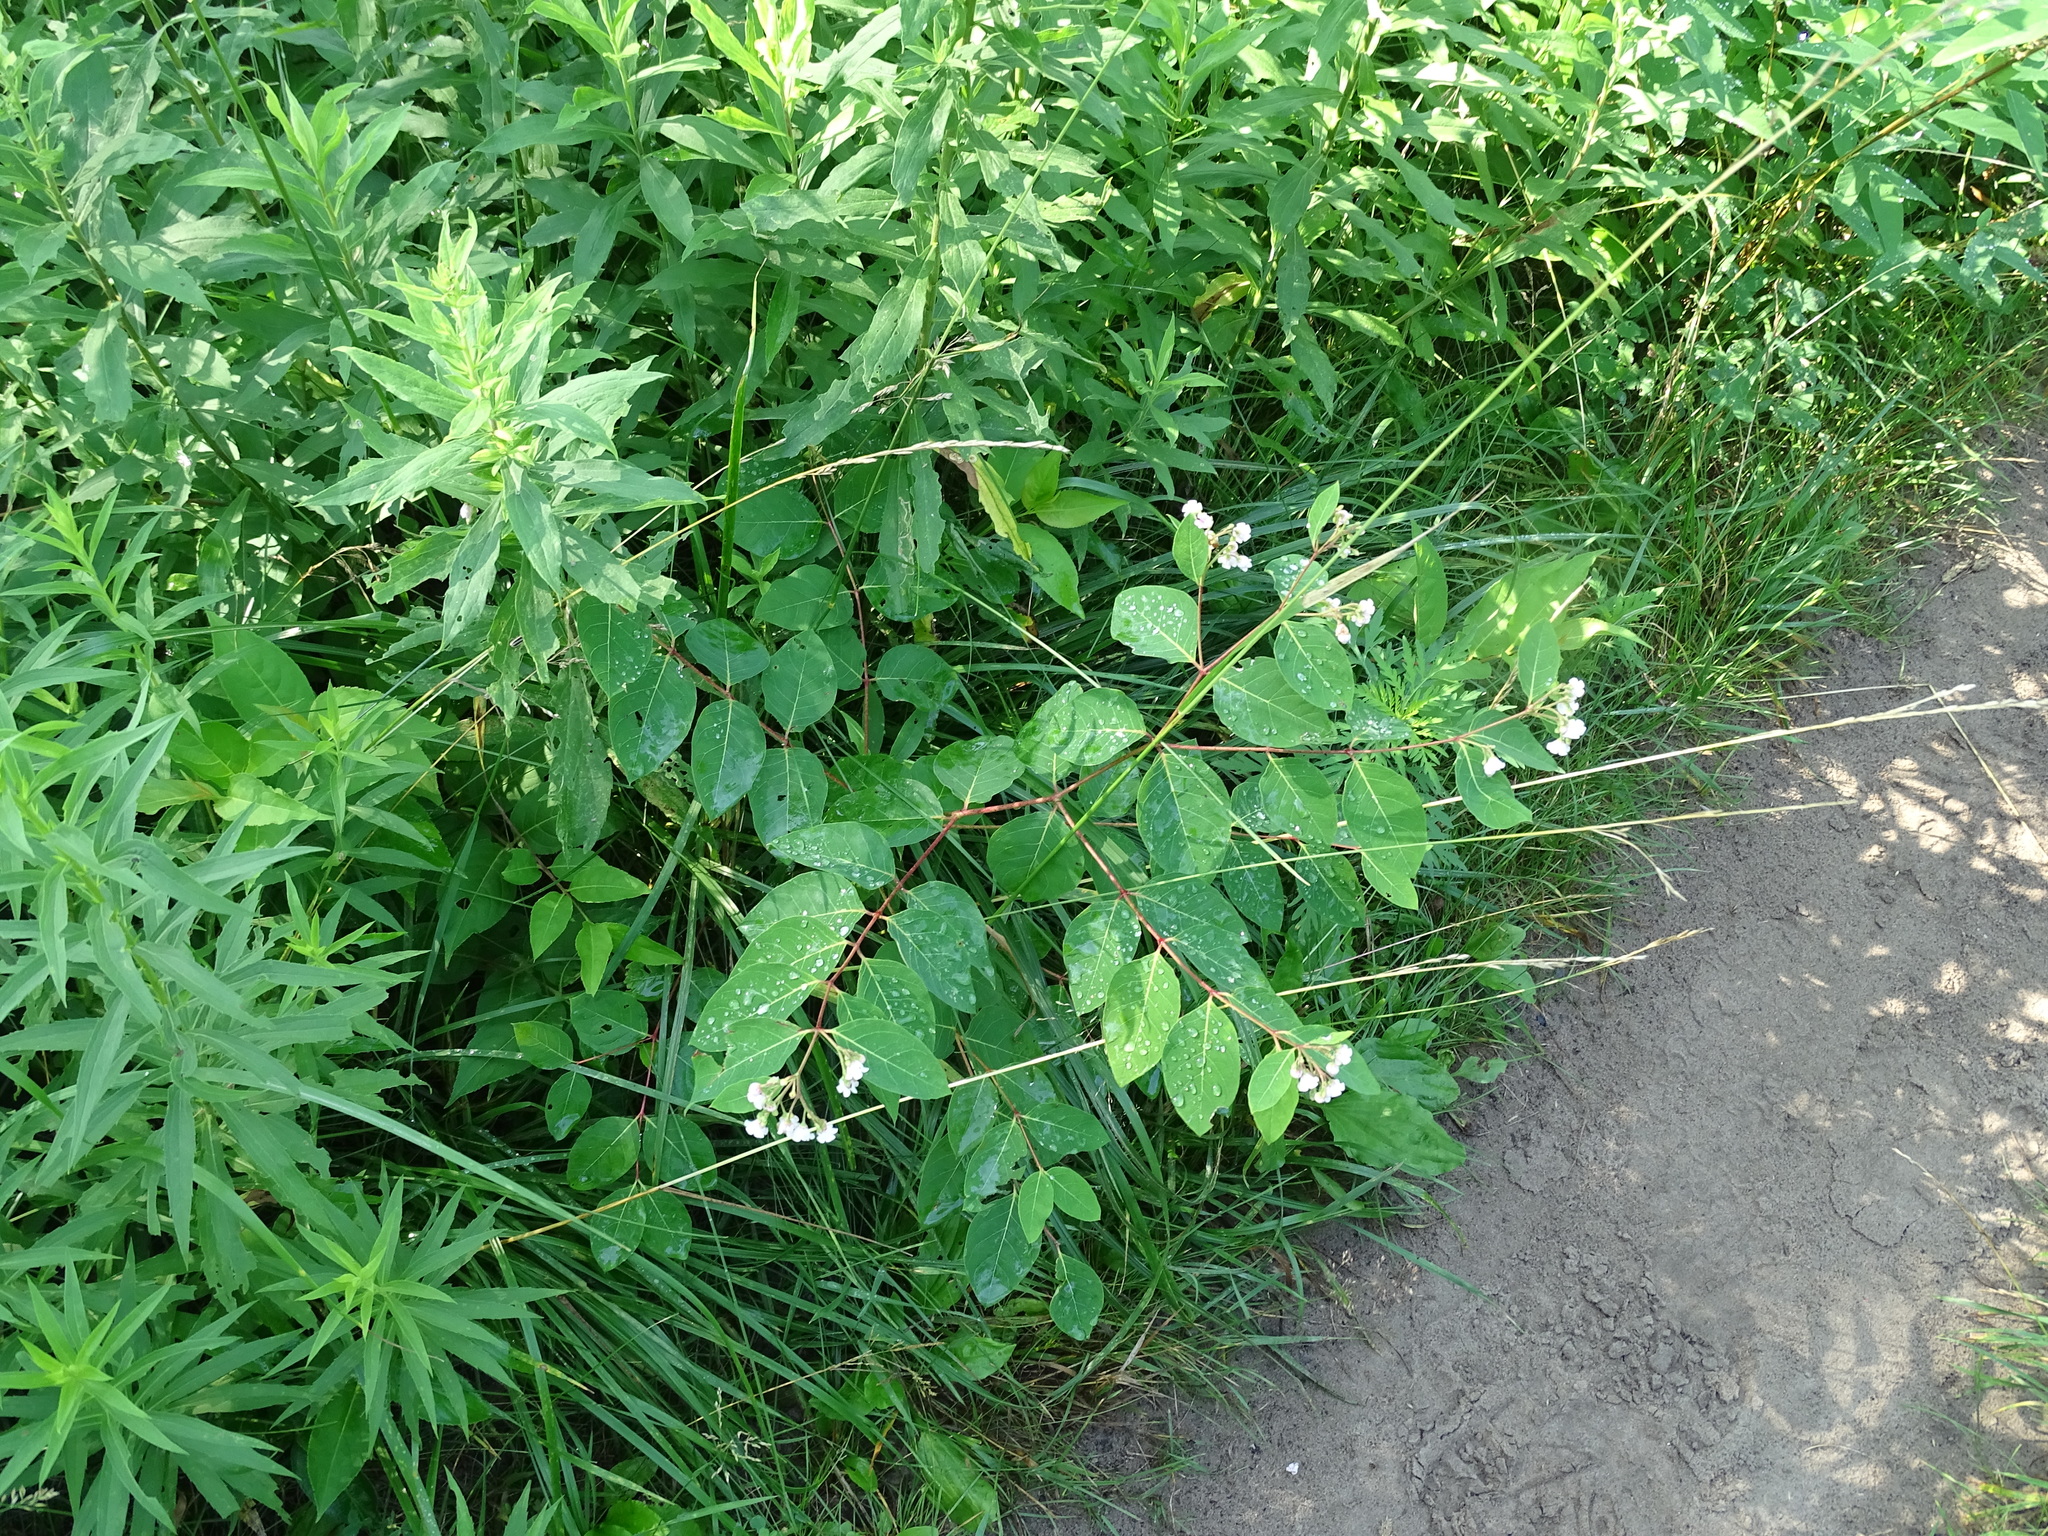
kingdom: Plantae
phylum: Tracheophyta
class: Magnoliopsida
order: Gentianales
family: Apocynaceae
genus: Apocynum
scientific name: Apocynum androsaemifolium
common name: Spreading dogbane
